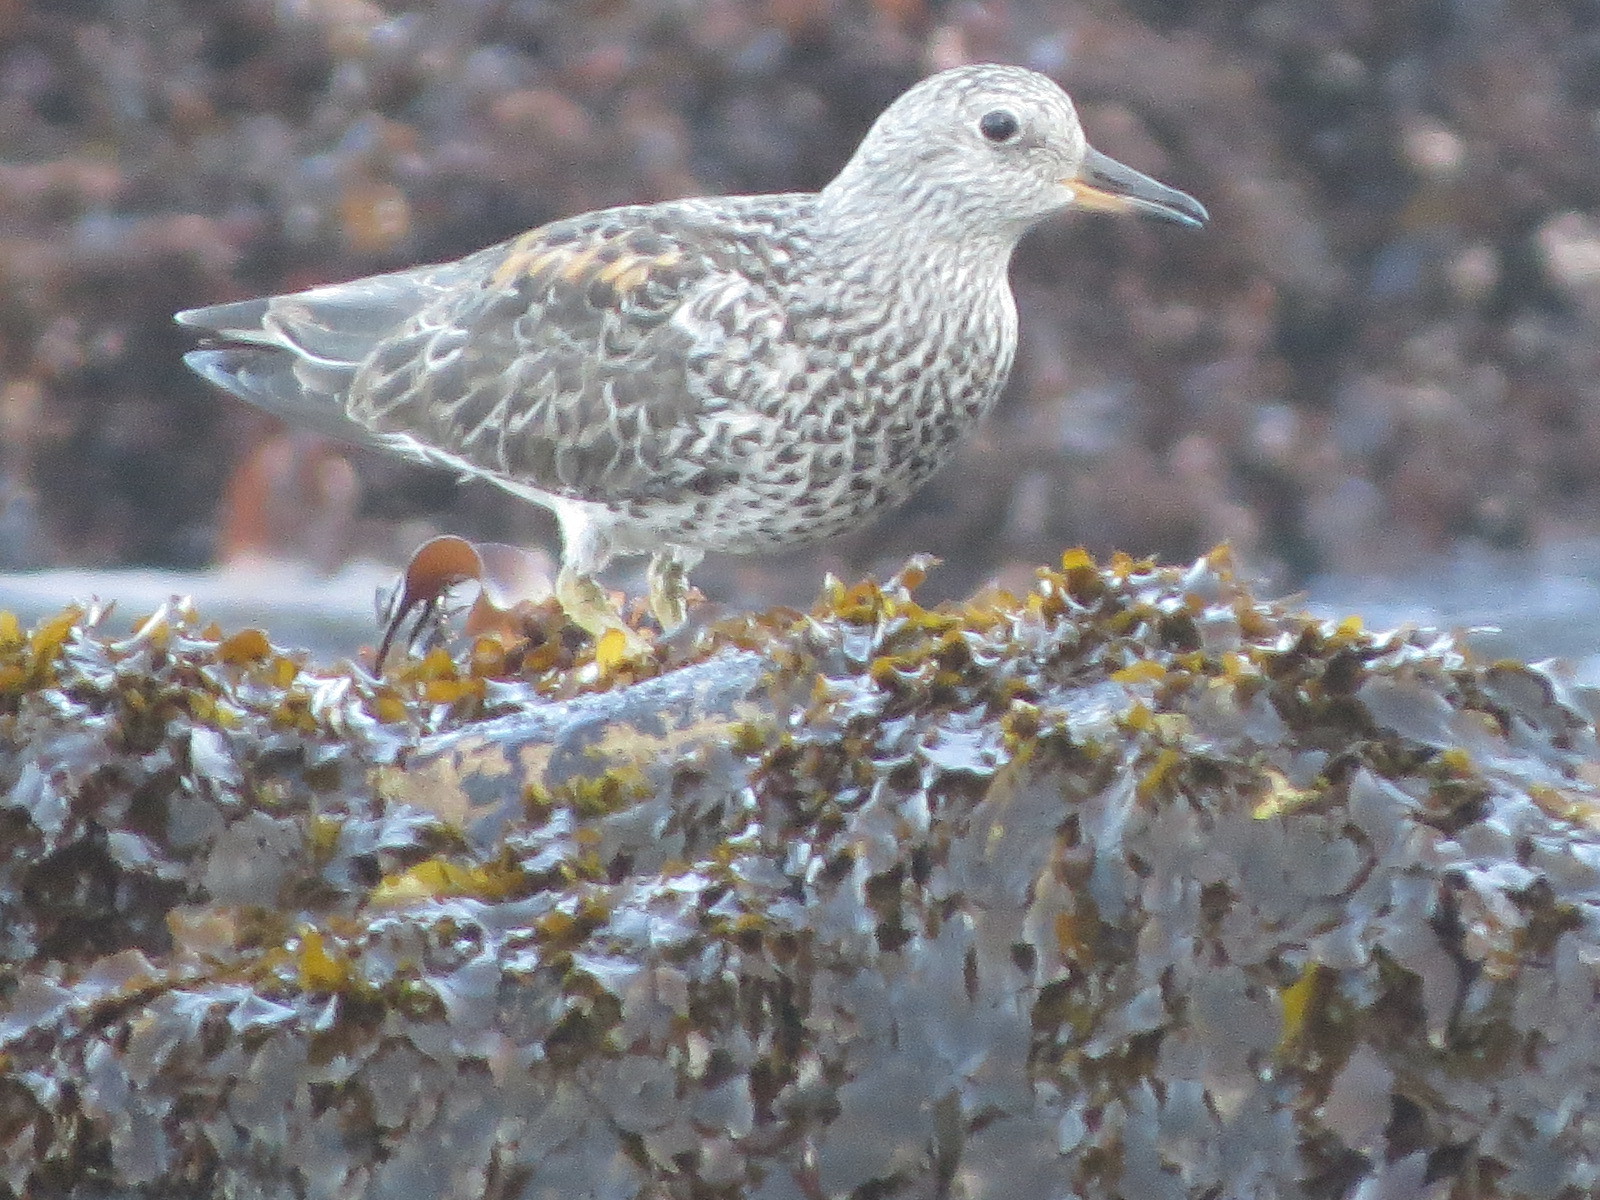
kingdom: Animalia
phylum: Chordata
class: Aves
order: Charadriiformes
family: Scolopacidae
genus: Calidris
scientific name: Calidris virgata
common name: Surfbird
